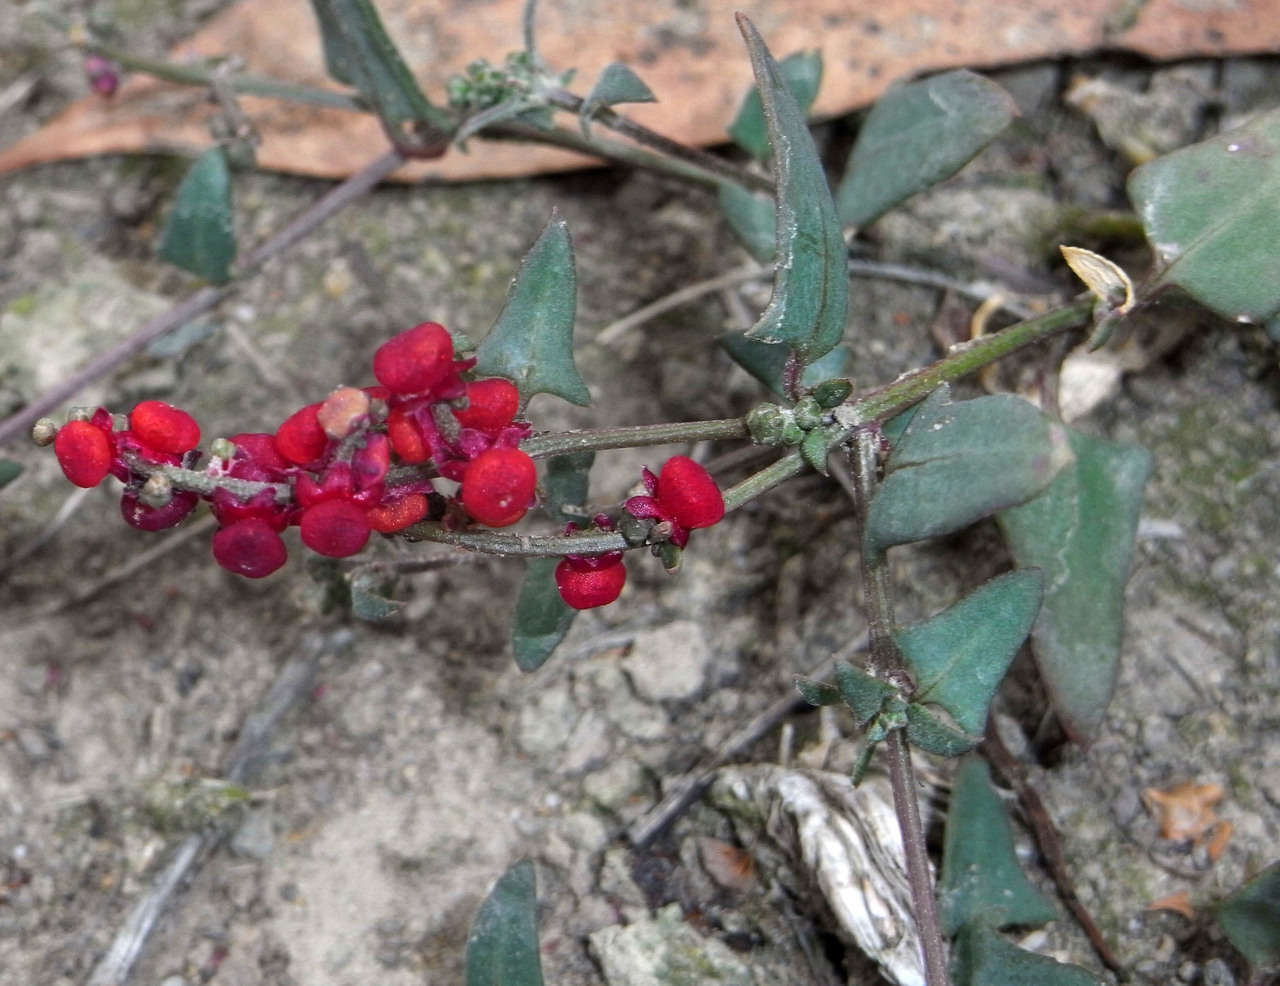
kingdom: Plantae
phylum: Tracheophyta
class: Magnoliopsida
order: Caryophyllales
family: Amaranthaceae
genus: Chenopodium
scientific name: Chenopodium nutans
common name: Climbing-saltbush
